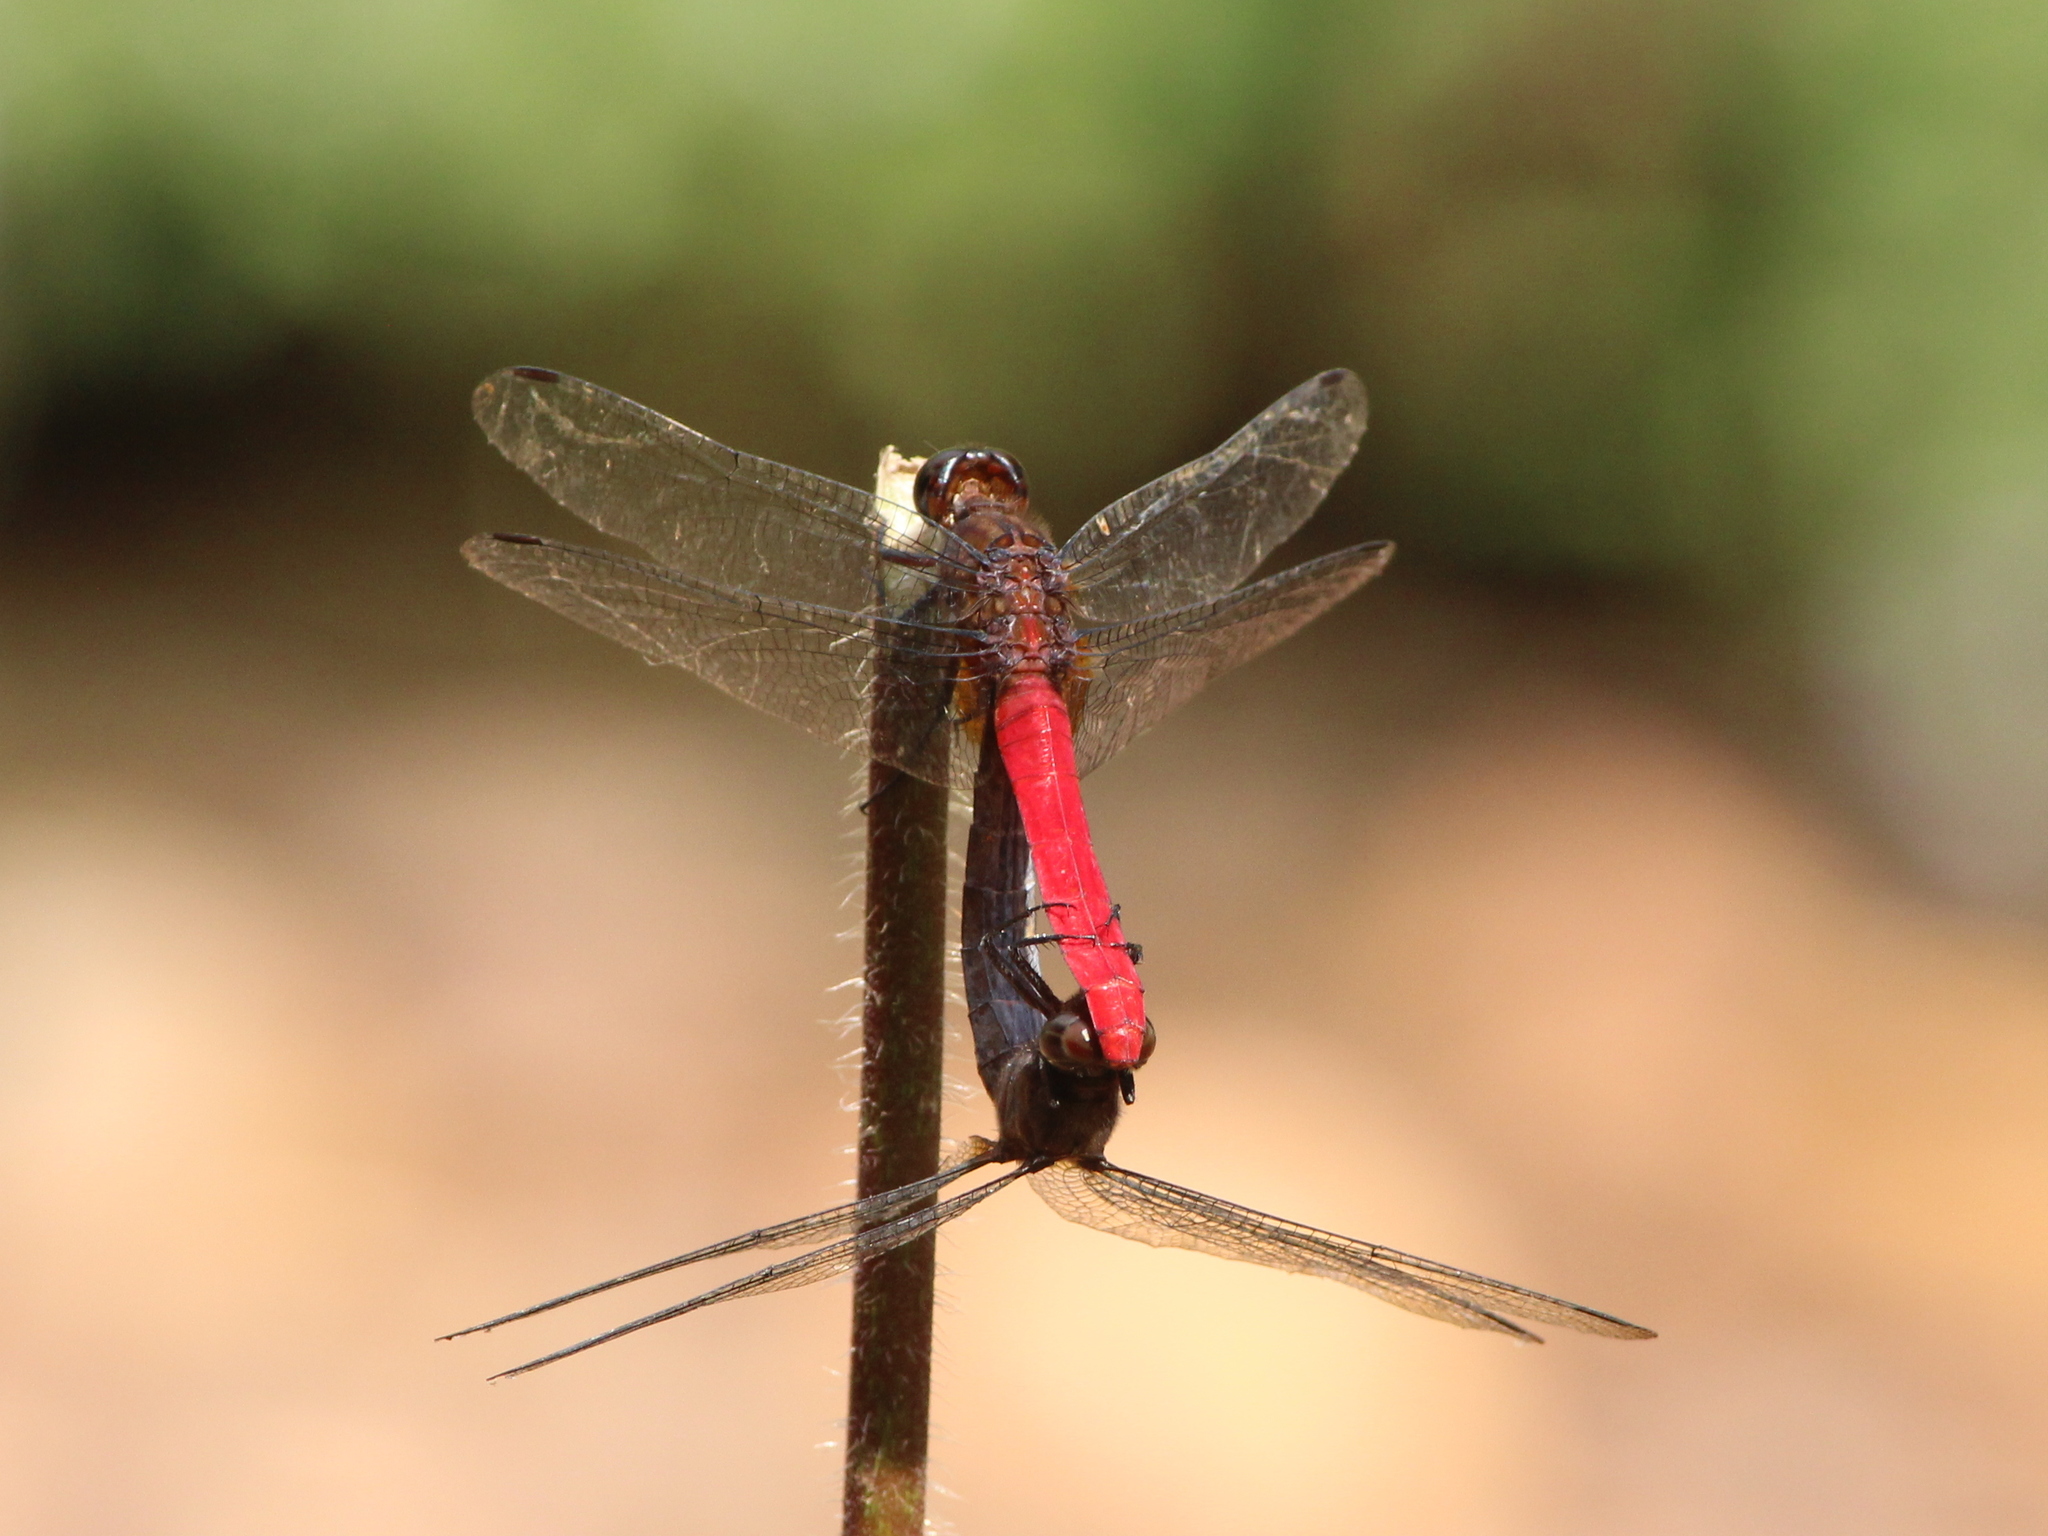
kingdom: Animalia
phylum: Arthropoda
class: Insecta
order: Odonata
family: Libellulidae
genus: Orthetrum
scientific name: Orthetrum chrysis
